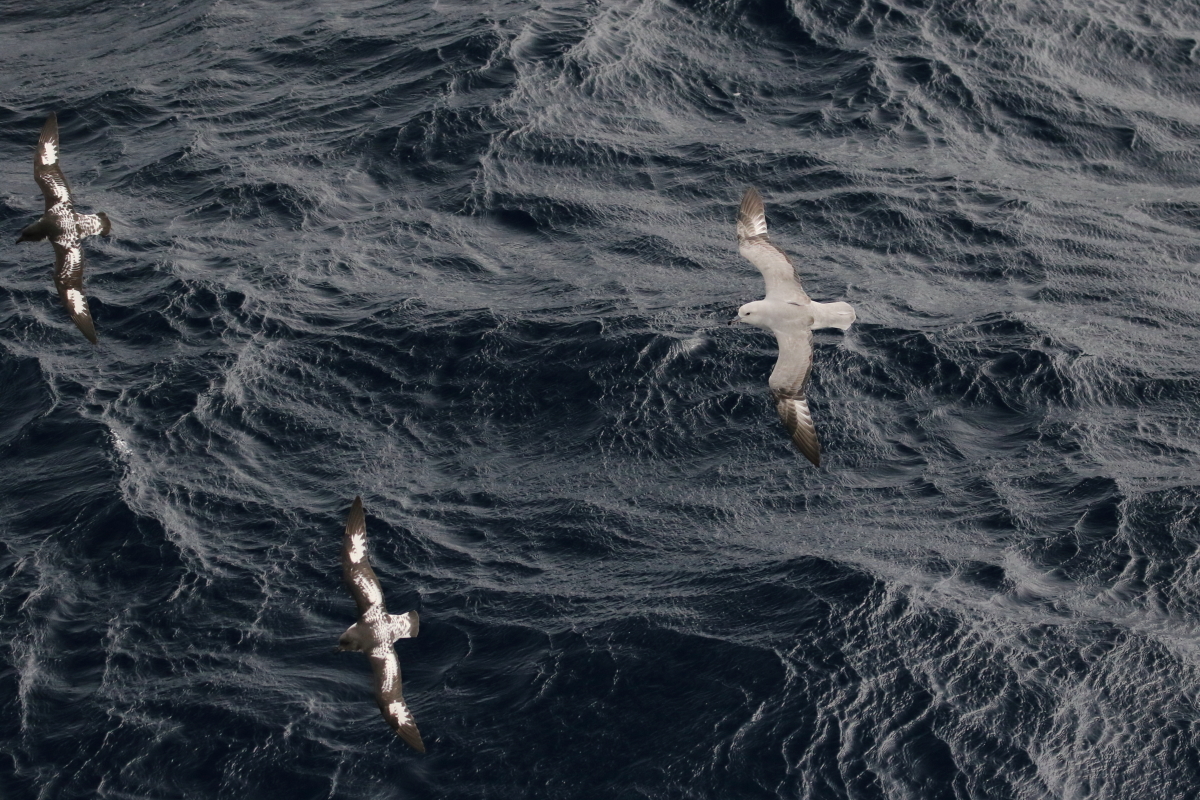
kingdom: Animalia
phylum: Chordata
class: Aves
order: Procellariiformes
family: Procellariidae
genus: Daption
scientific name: Daption capense
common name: Cape petrel
